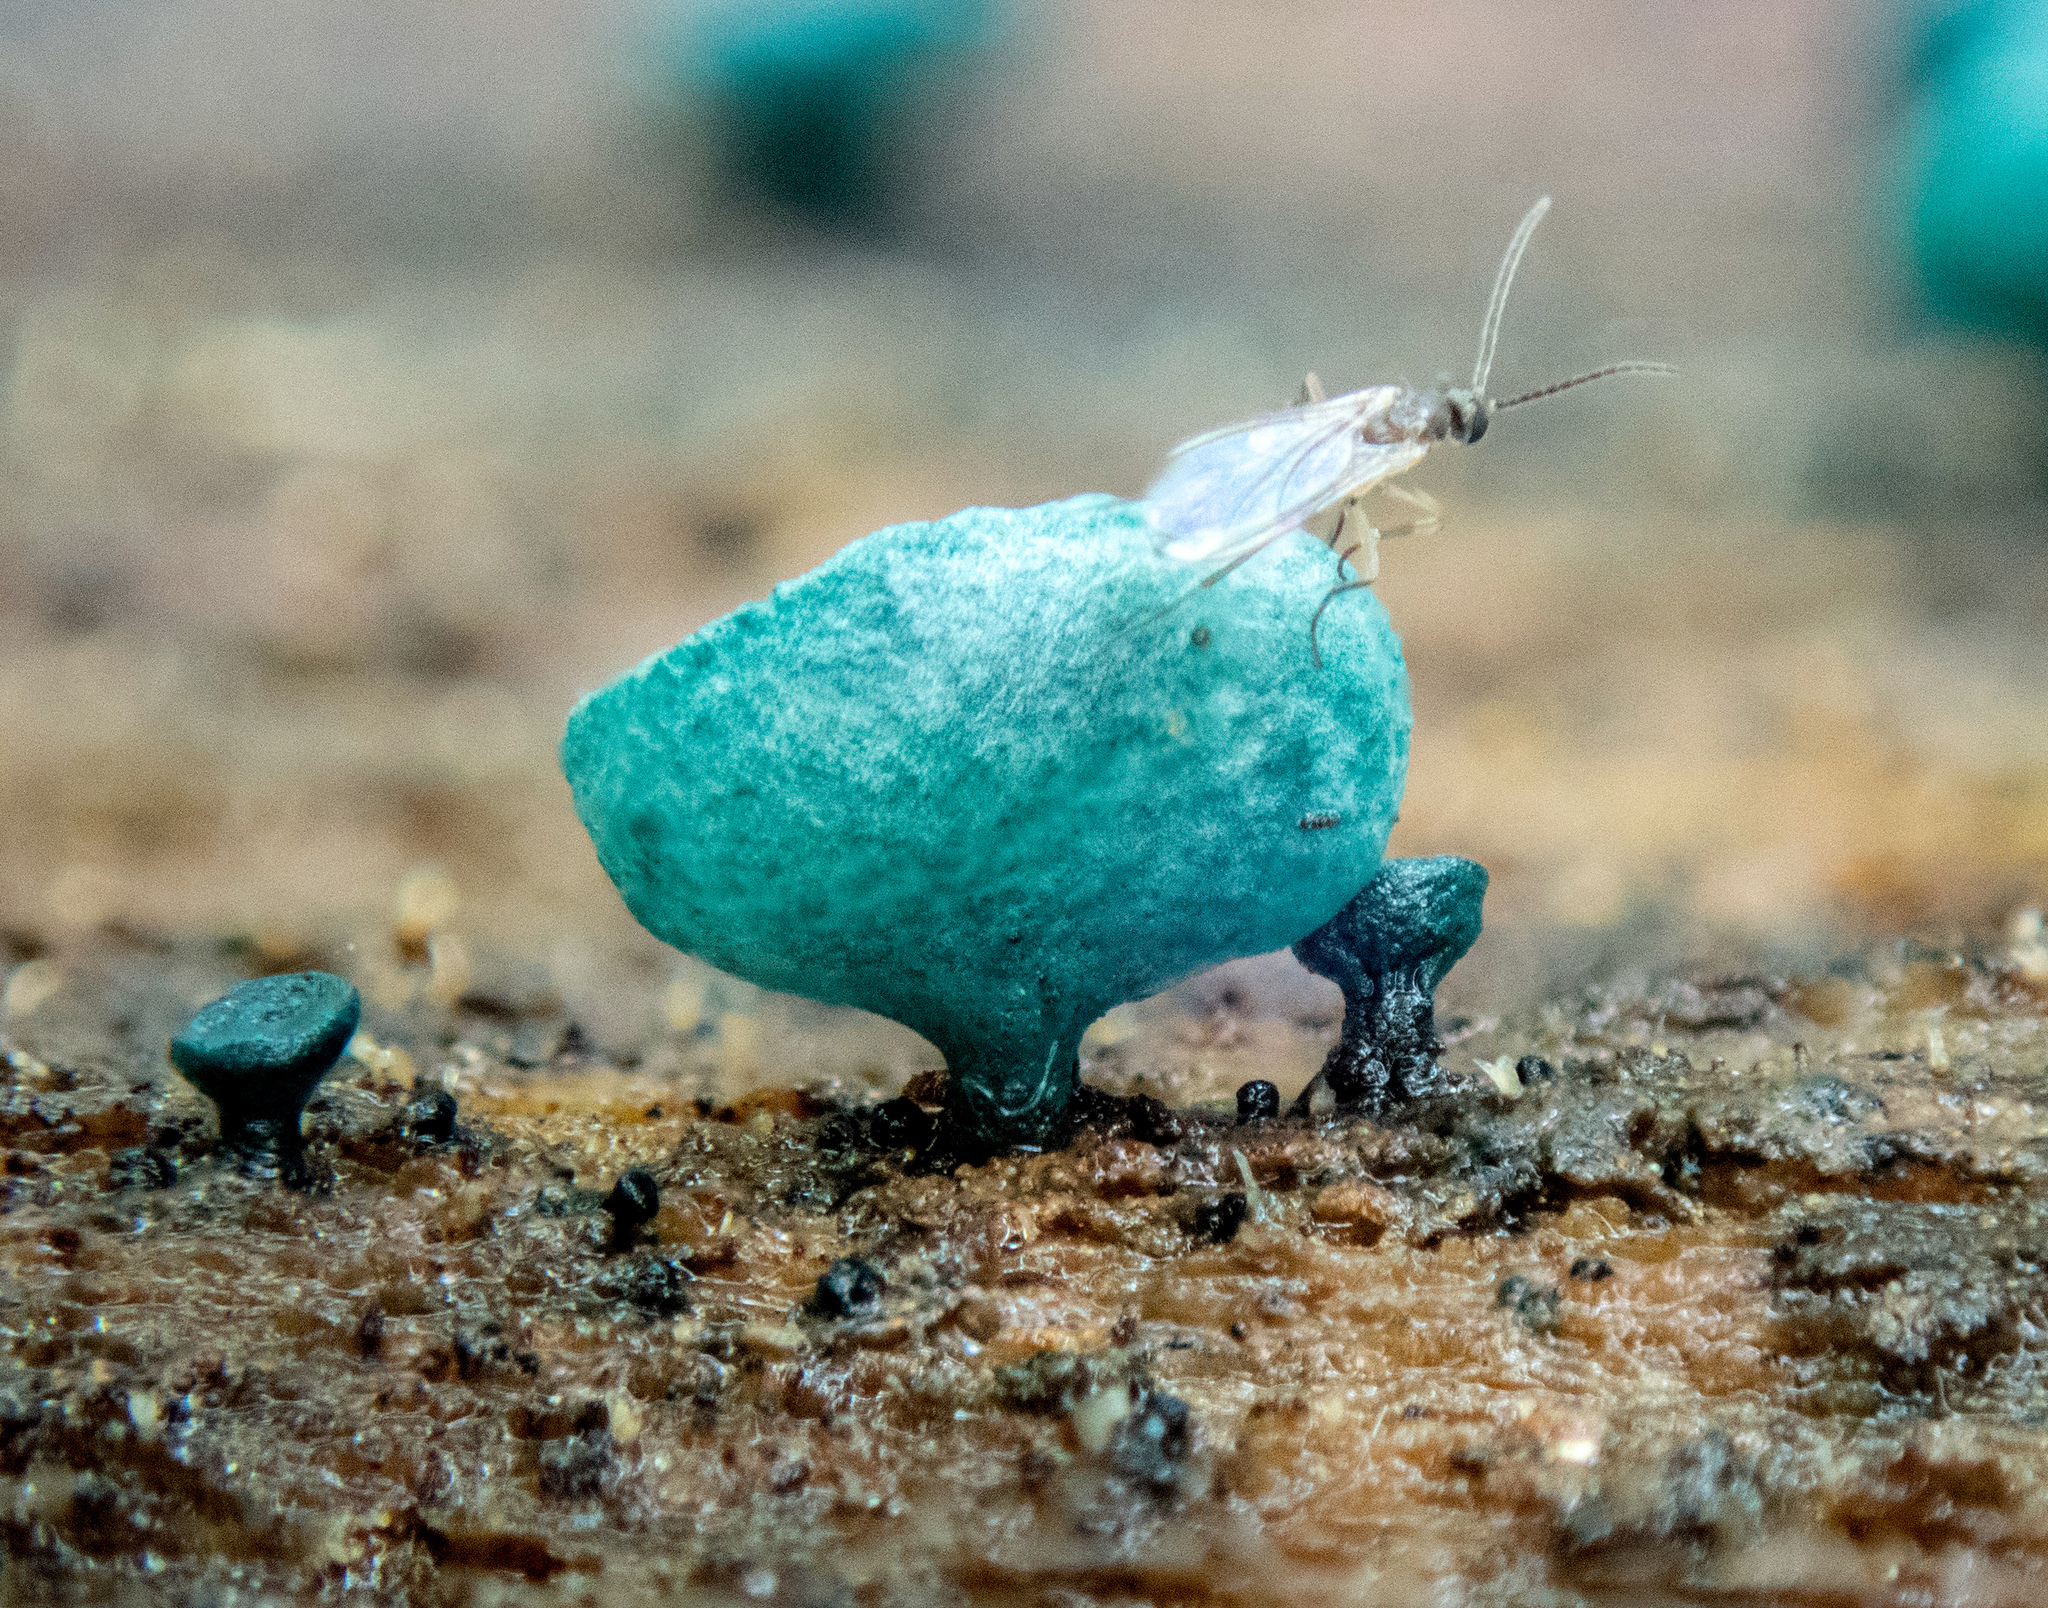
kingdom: Fungi
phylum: Ascomycota
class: Leotiomycetes
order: Helotiales
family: Chlorociboriaceae
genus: Chlorociboria
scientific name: Chlorociboria aeruginascens
